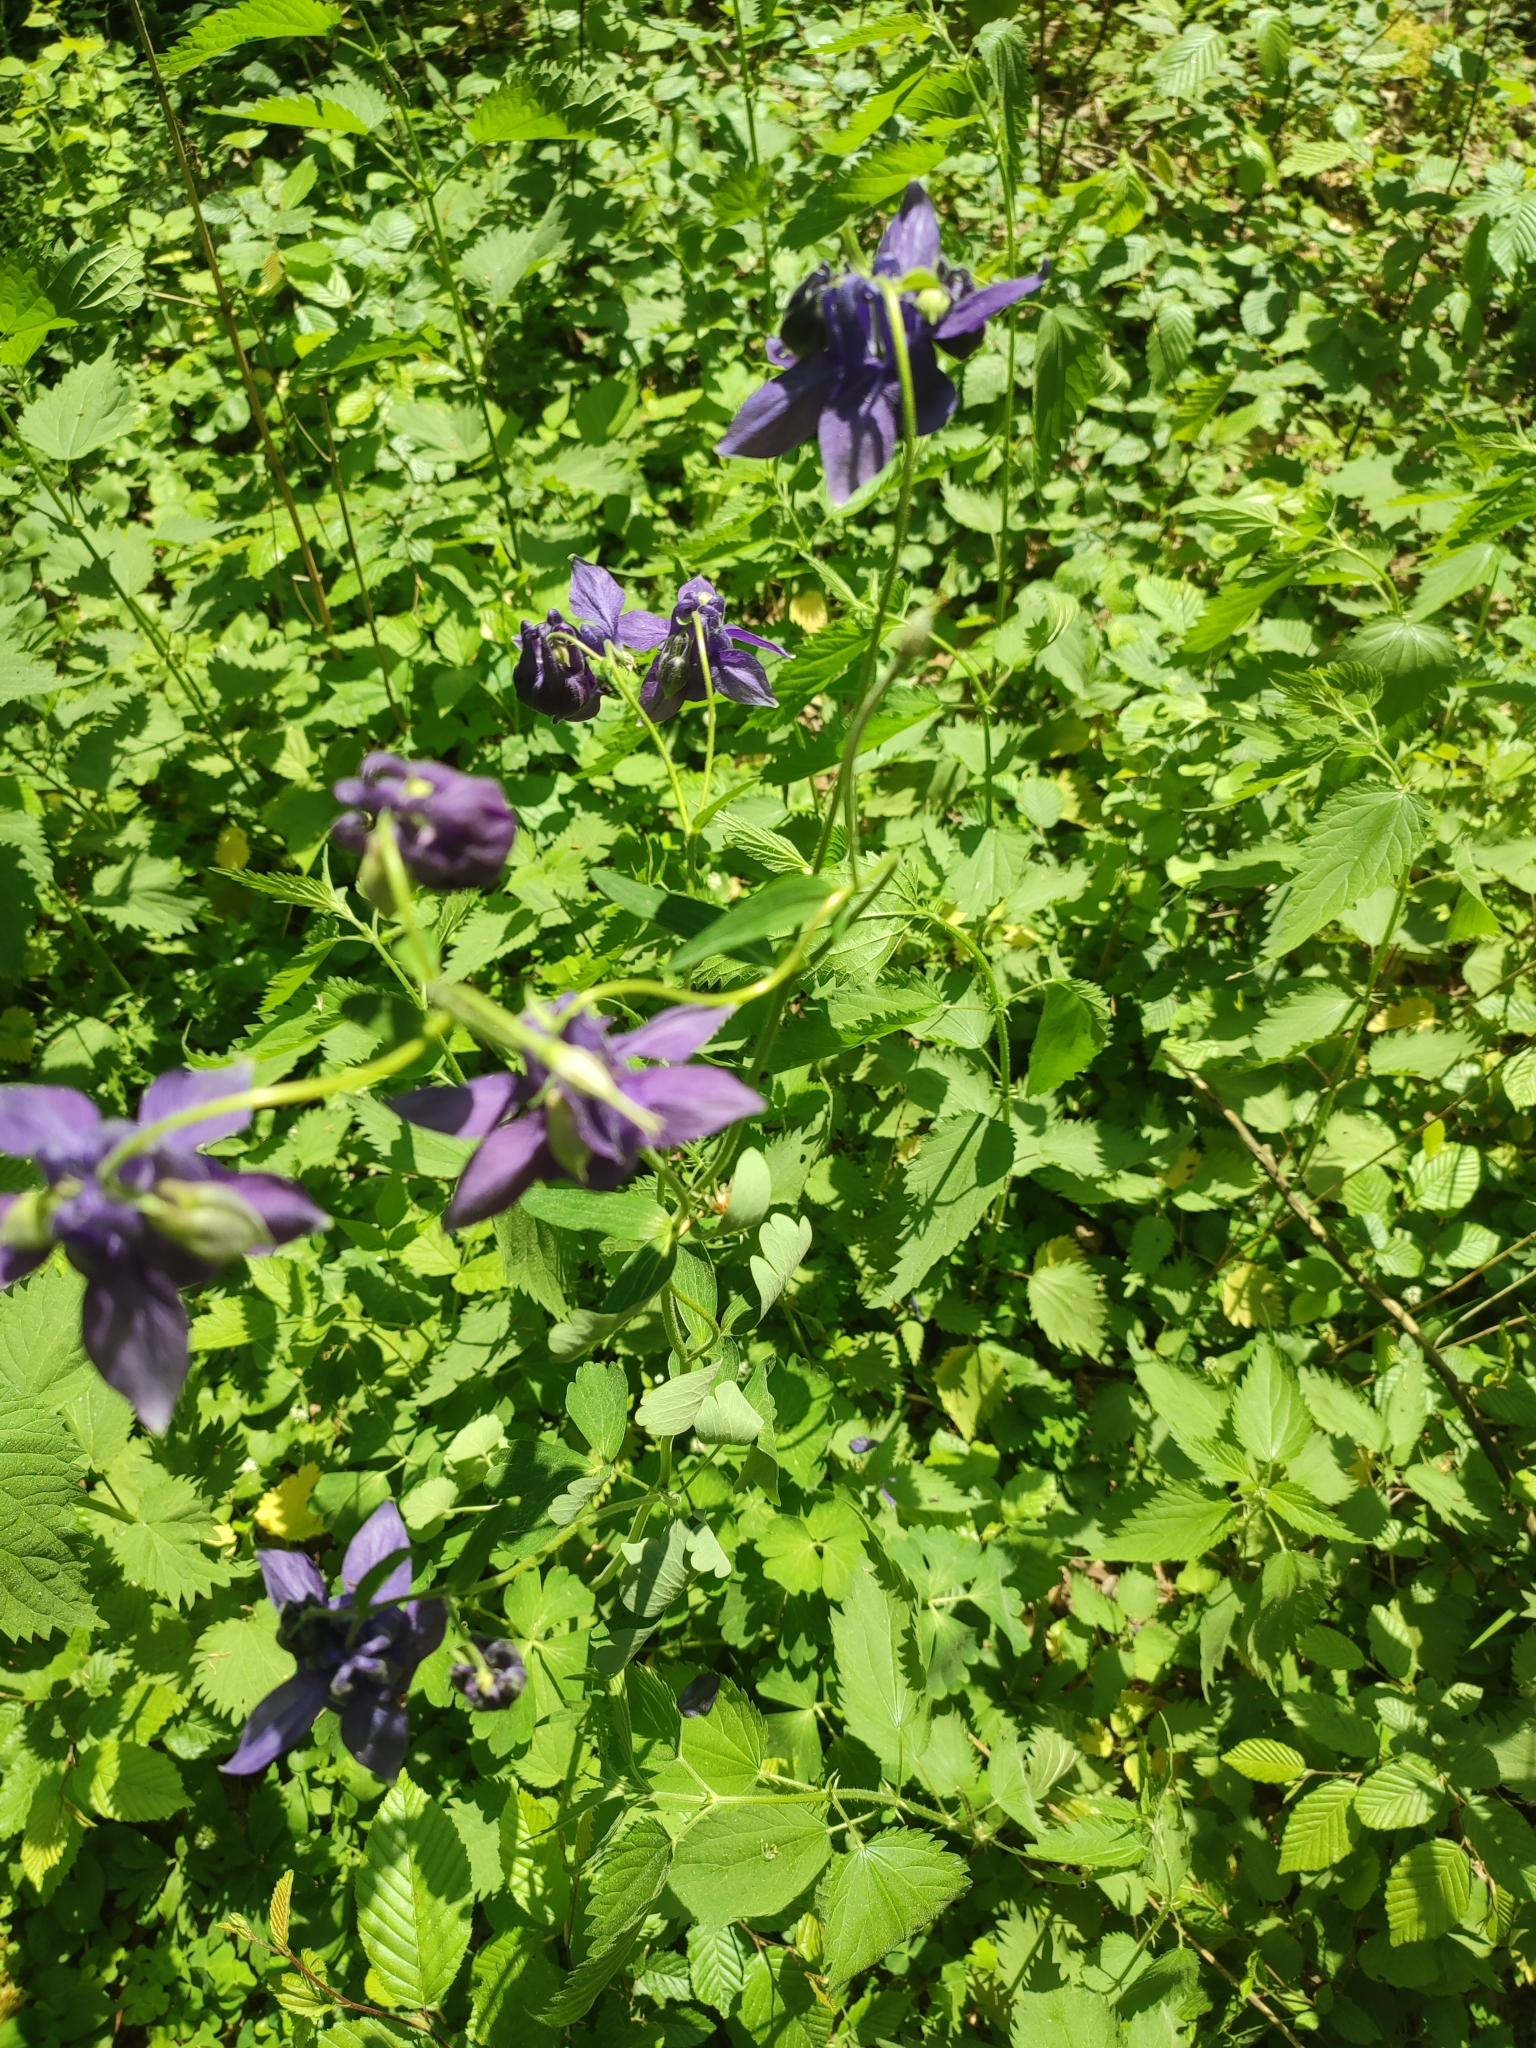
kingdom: Plantae
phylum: Tracheophyta
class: Magnoliopsida
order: Ranunculales
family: Ranunculaceae
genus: Aquilegia
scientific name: Aquilegia vulgaris
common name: Columbine
